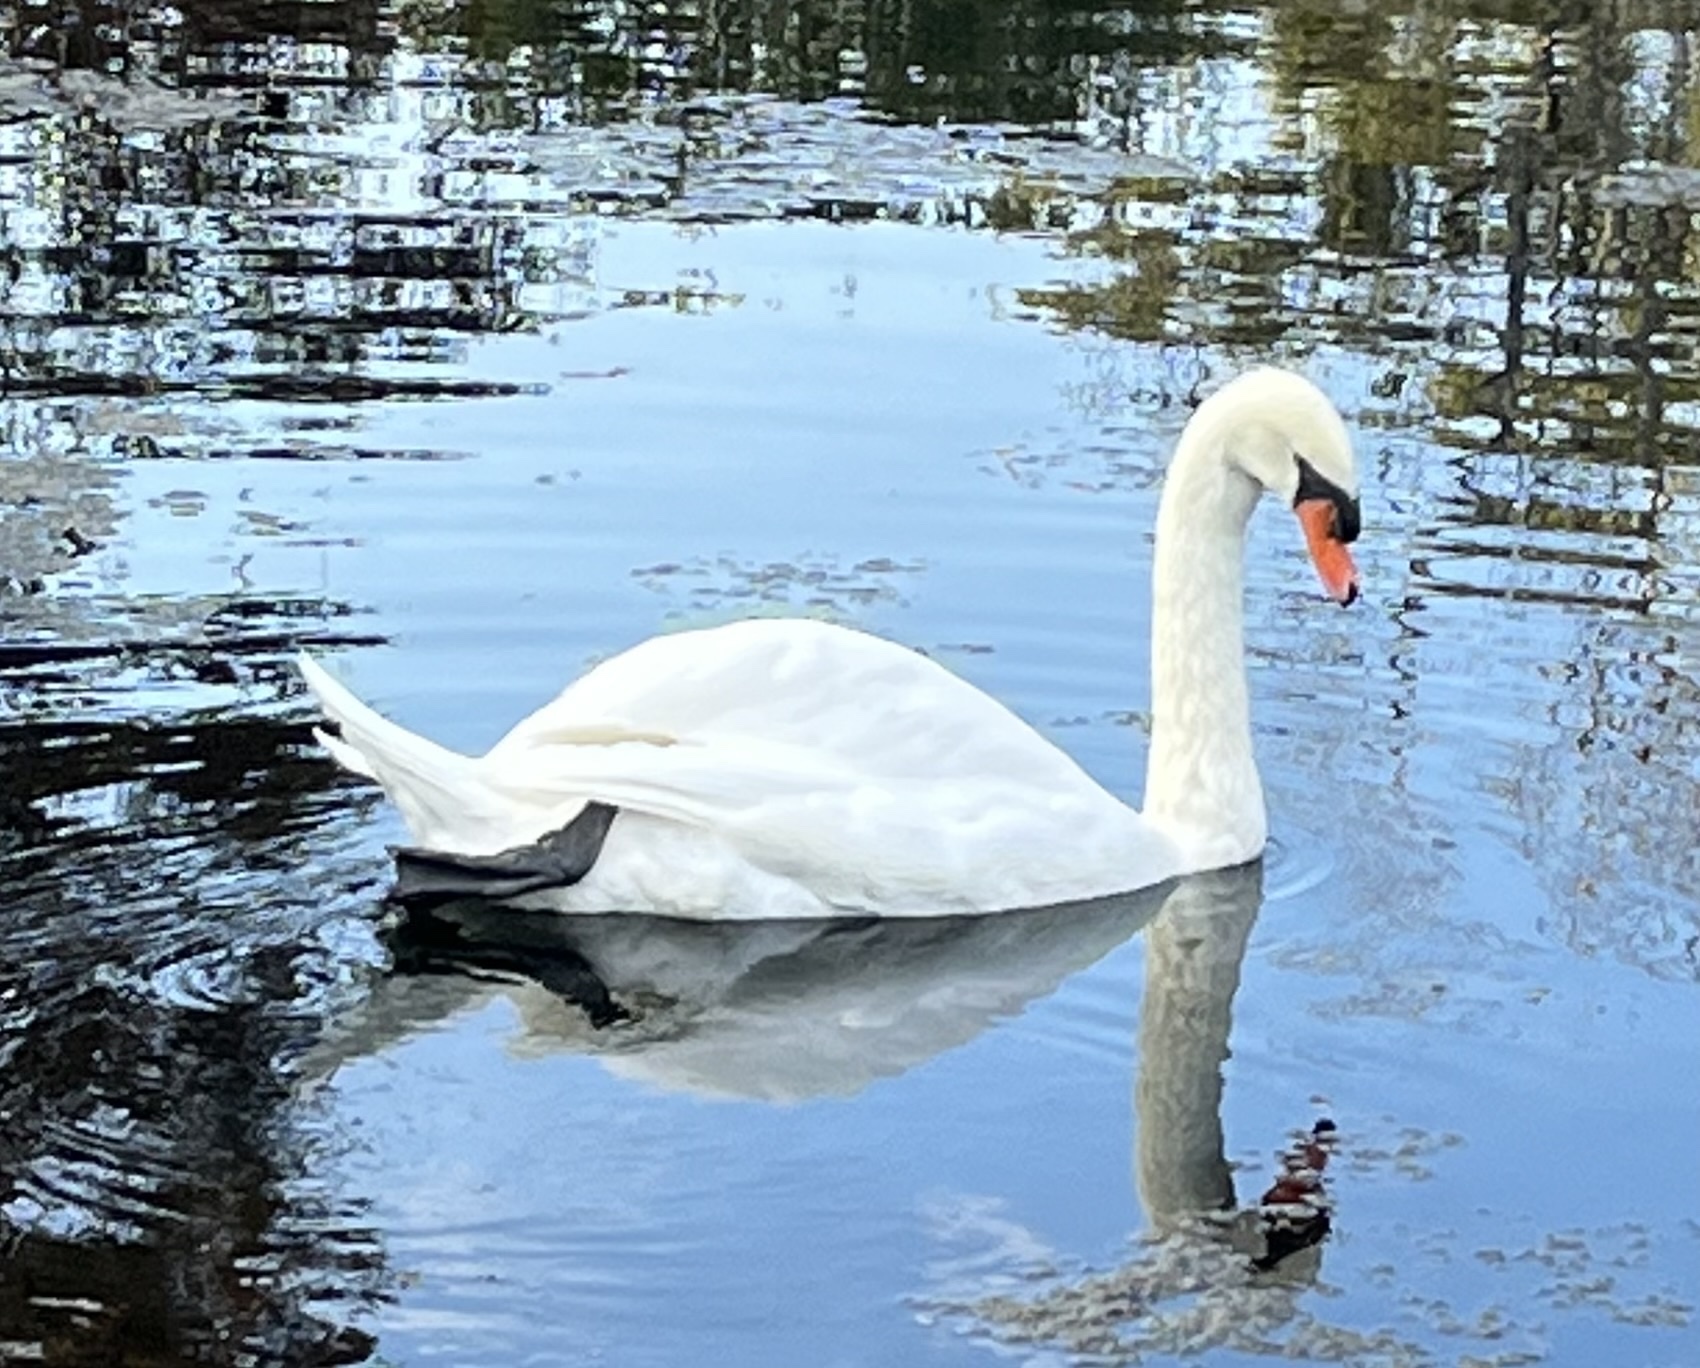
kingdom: Animalia
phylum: Chordata
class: Aves
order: Anseriformes
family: Anatidae
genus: Cygnus
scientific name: Cygnus olor
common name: Mute swan
